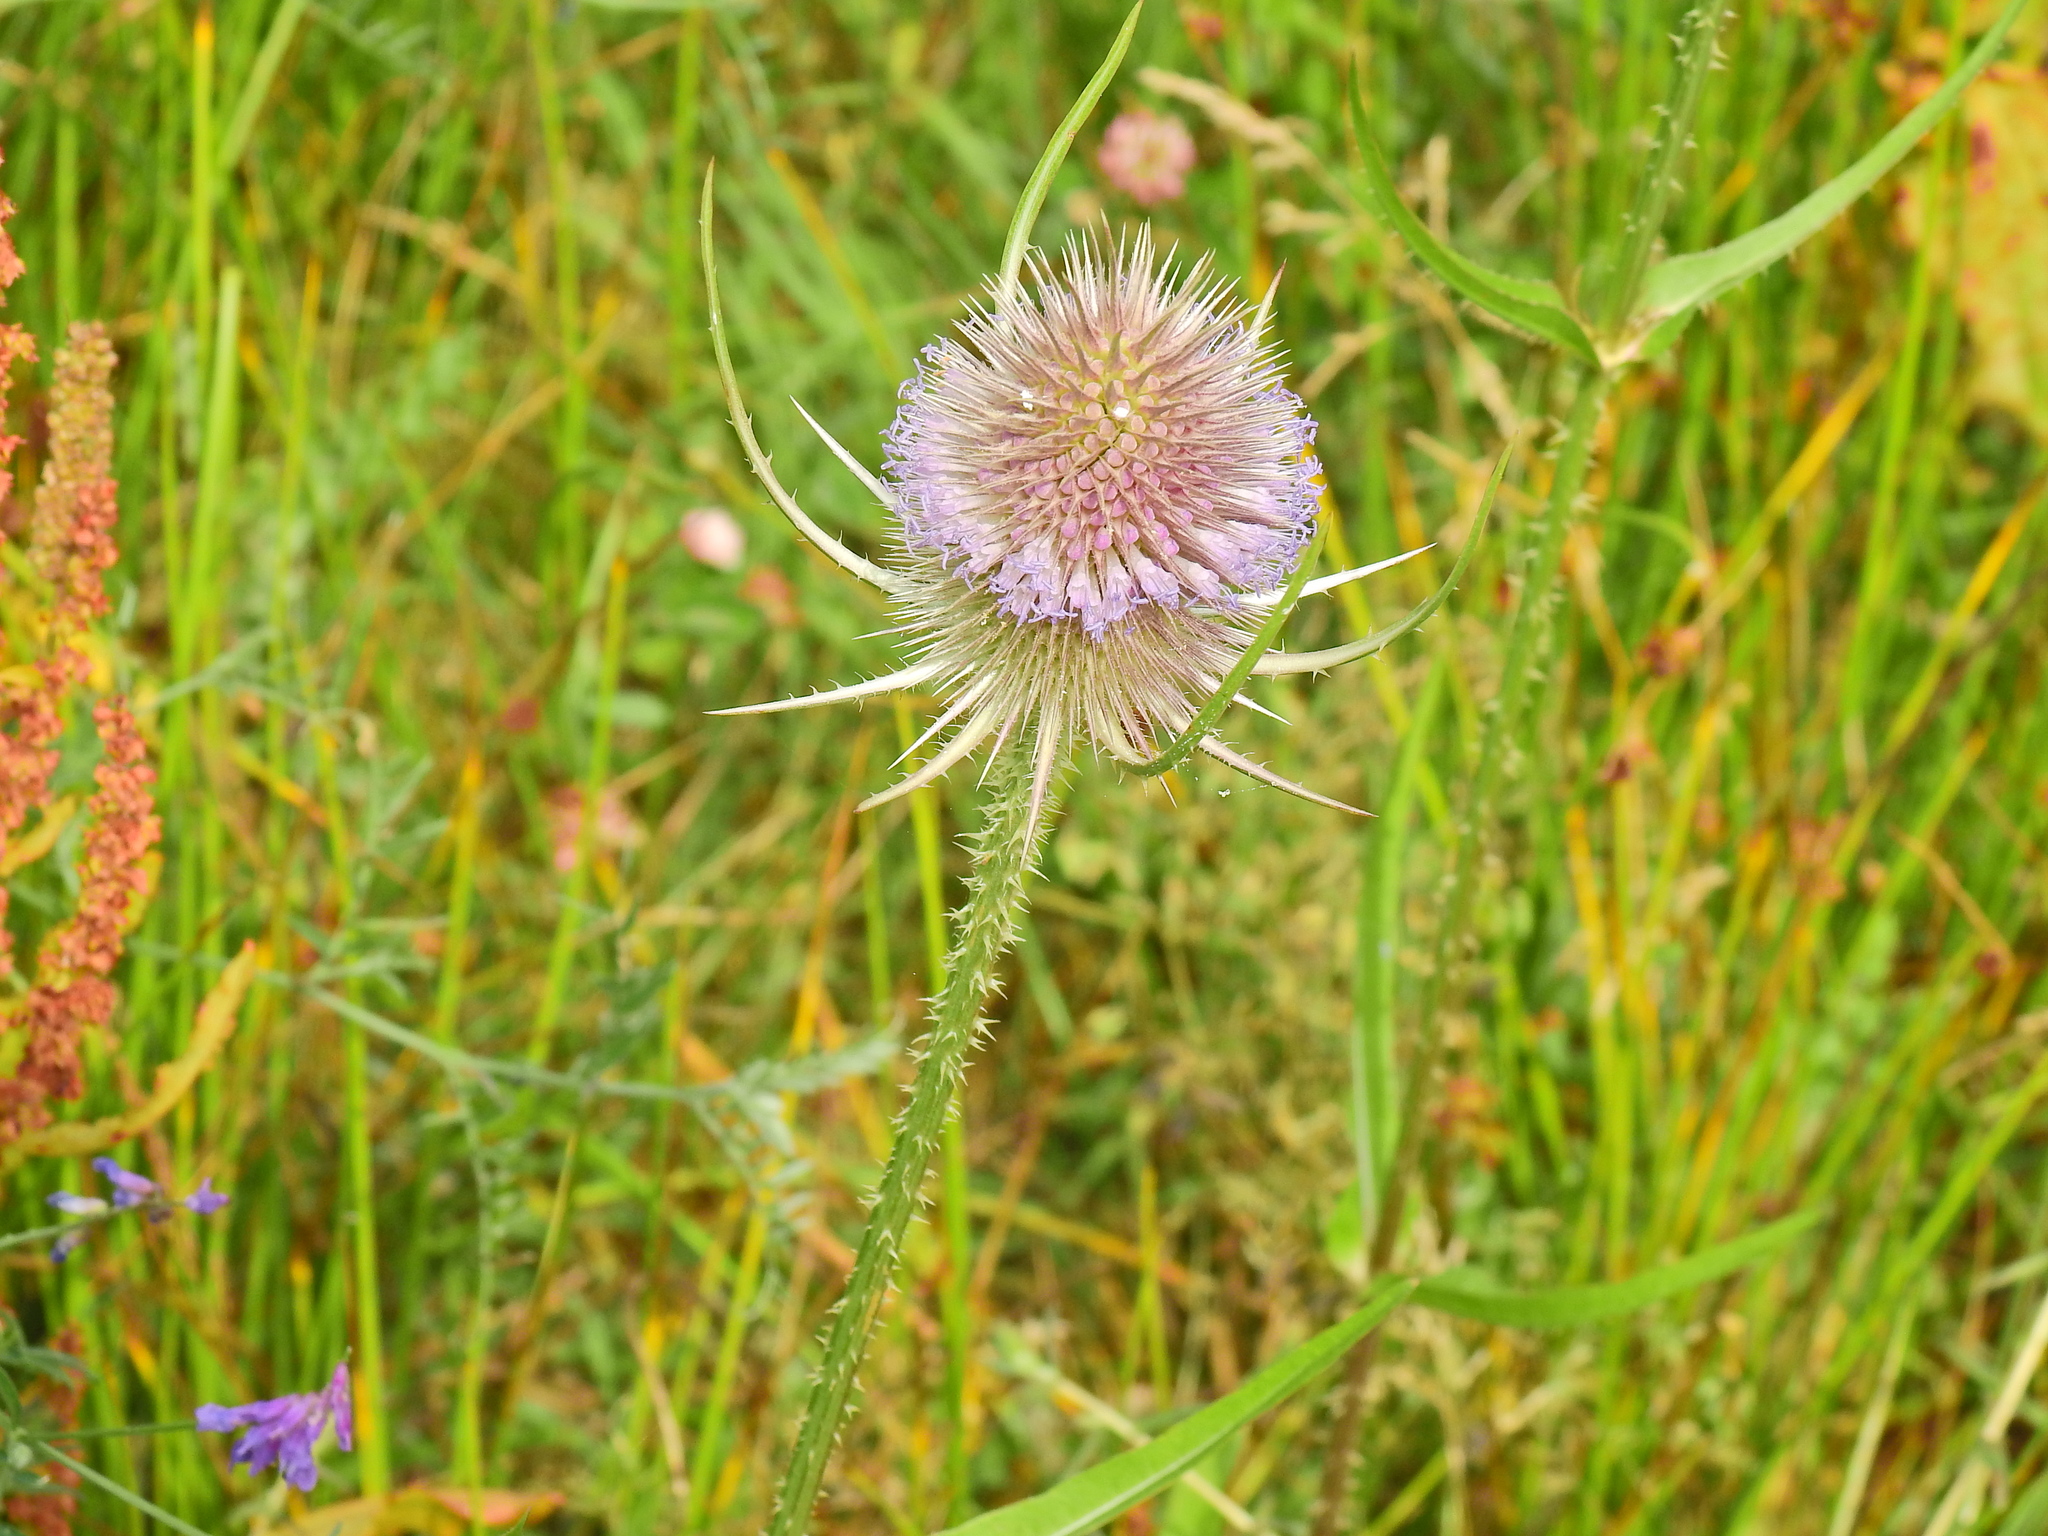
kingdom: Plantae
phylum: Tracheophyta
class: Magnoliopsida
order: Dipsacales
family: Caprifoliaceae
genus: Dipsacus
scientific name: Dipsacus fullonum
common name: Teasel
